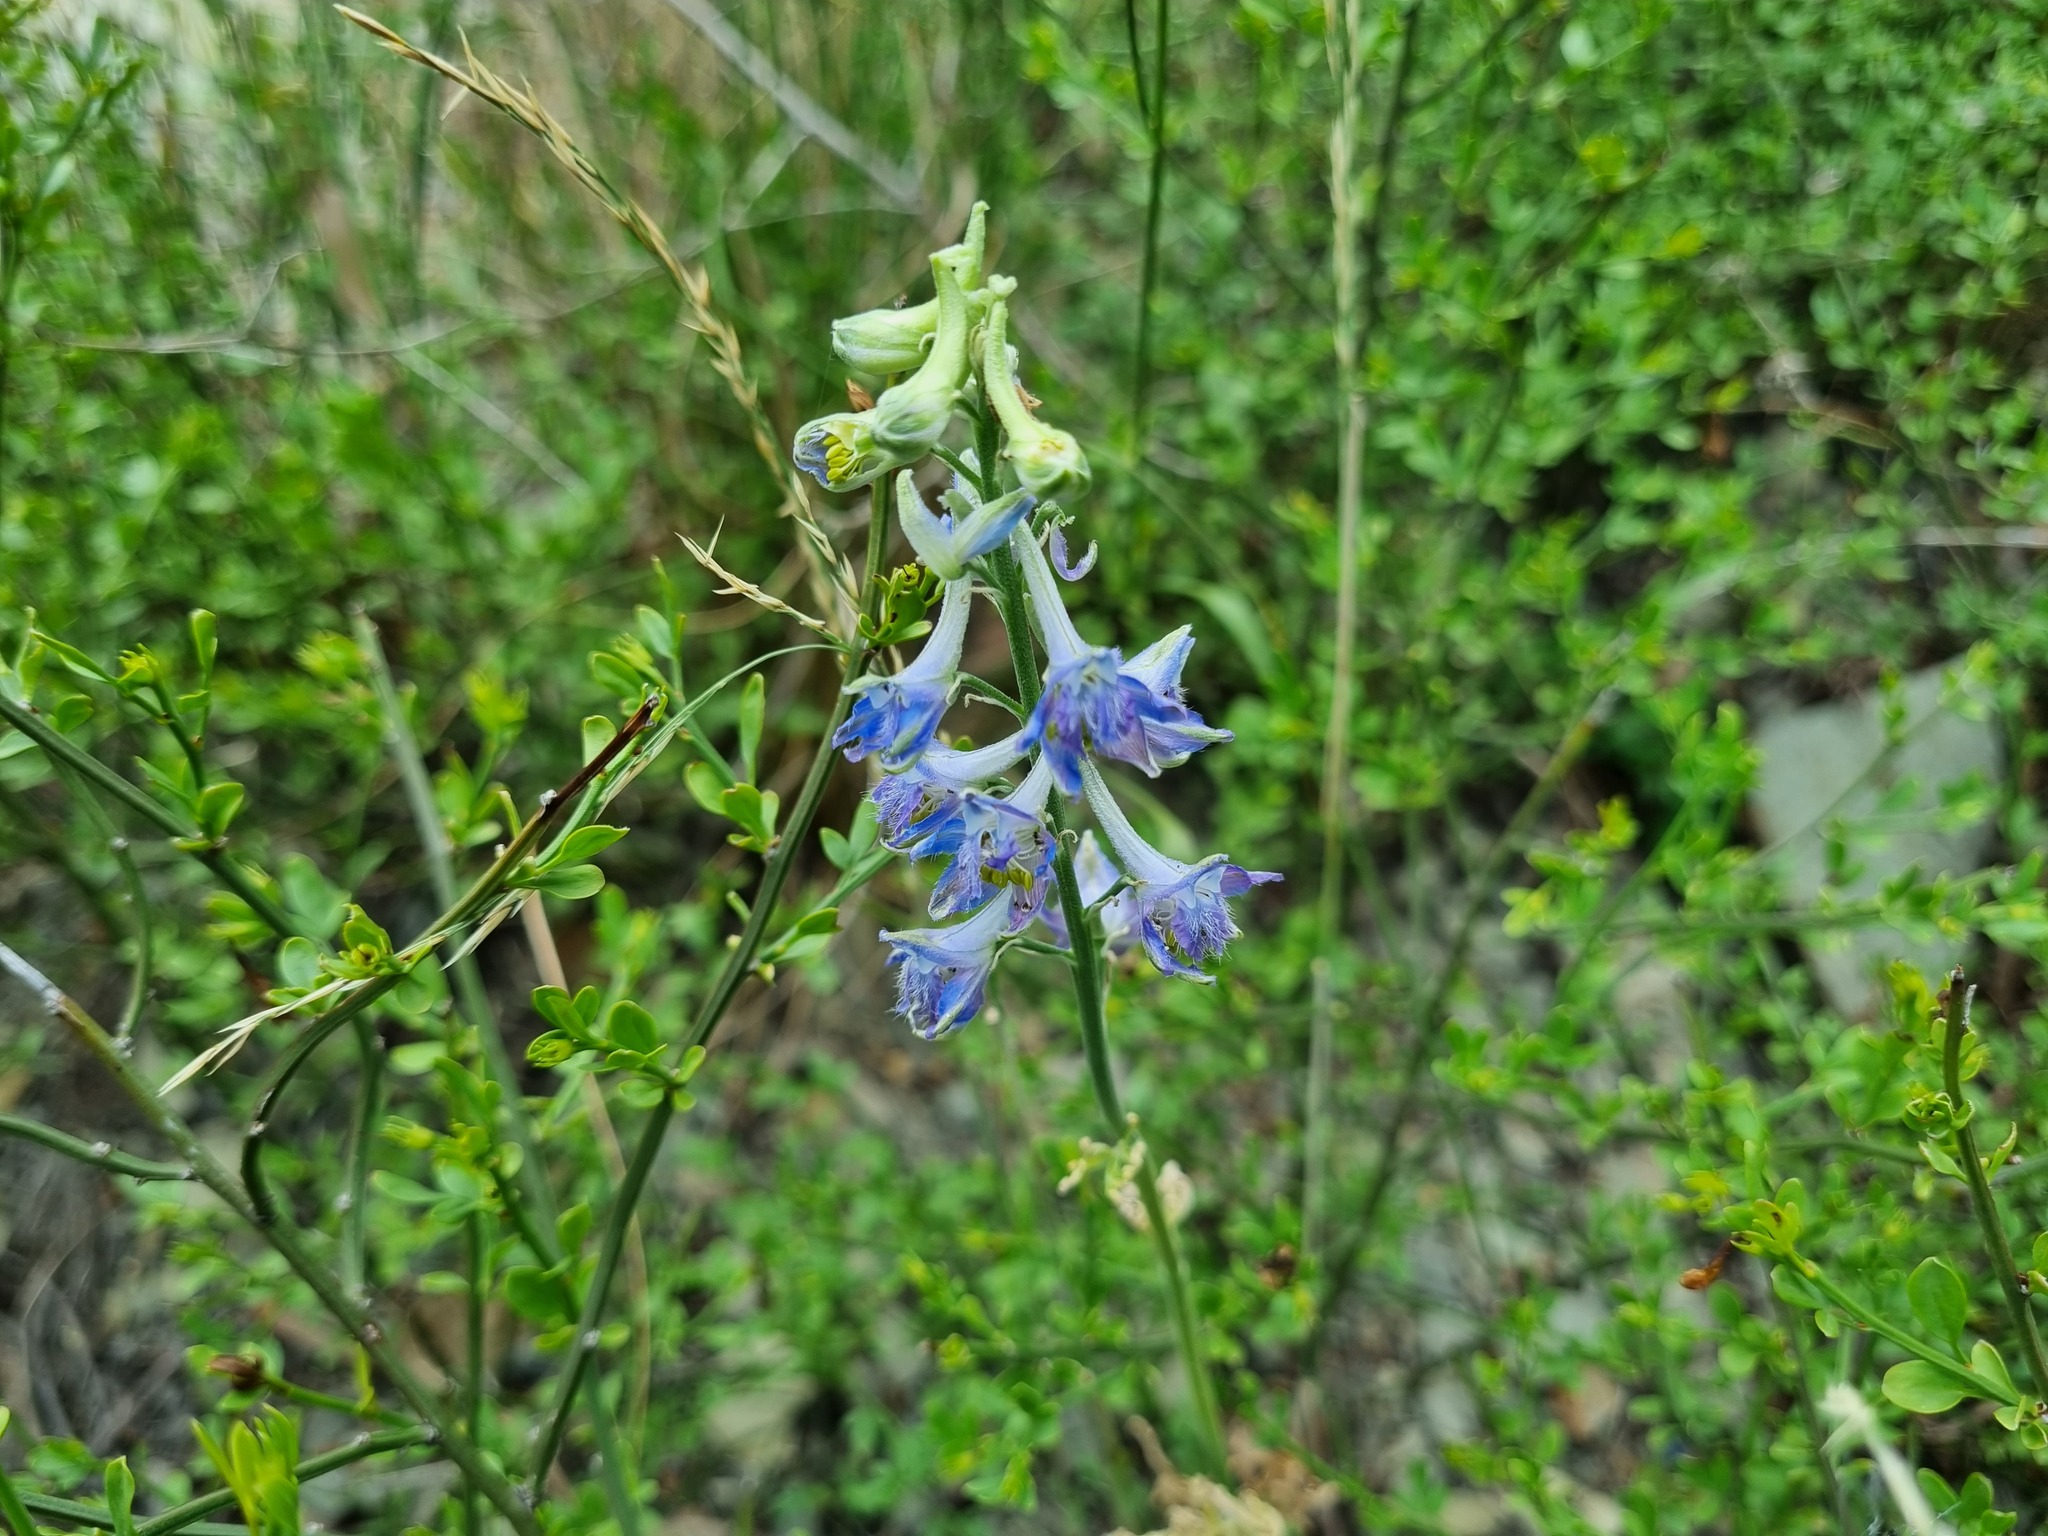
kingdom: Plantae
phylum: Tracheophyta
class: Magnoliopsida
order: Ranunculales
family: Ranunculaceae
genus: Delphinium
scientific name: Delphinium schmalhausenii
